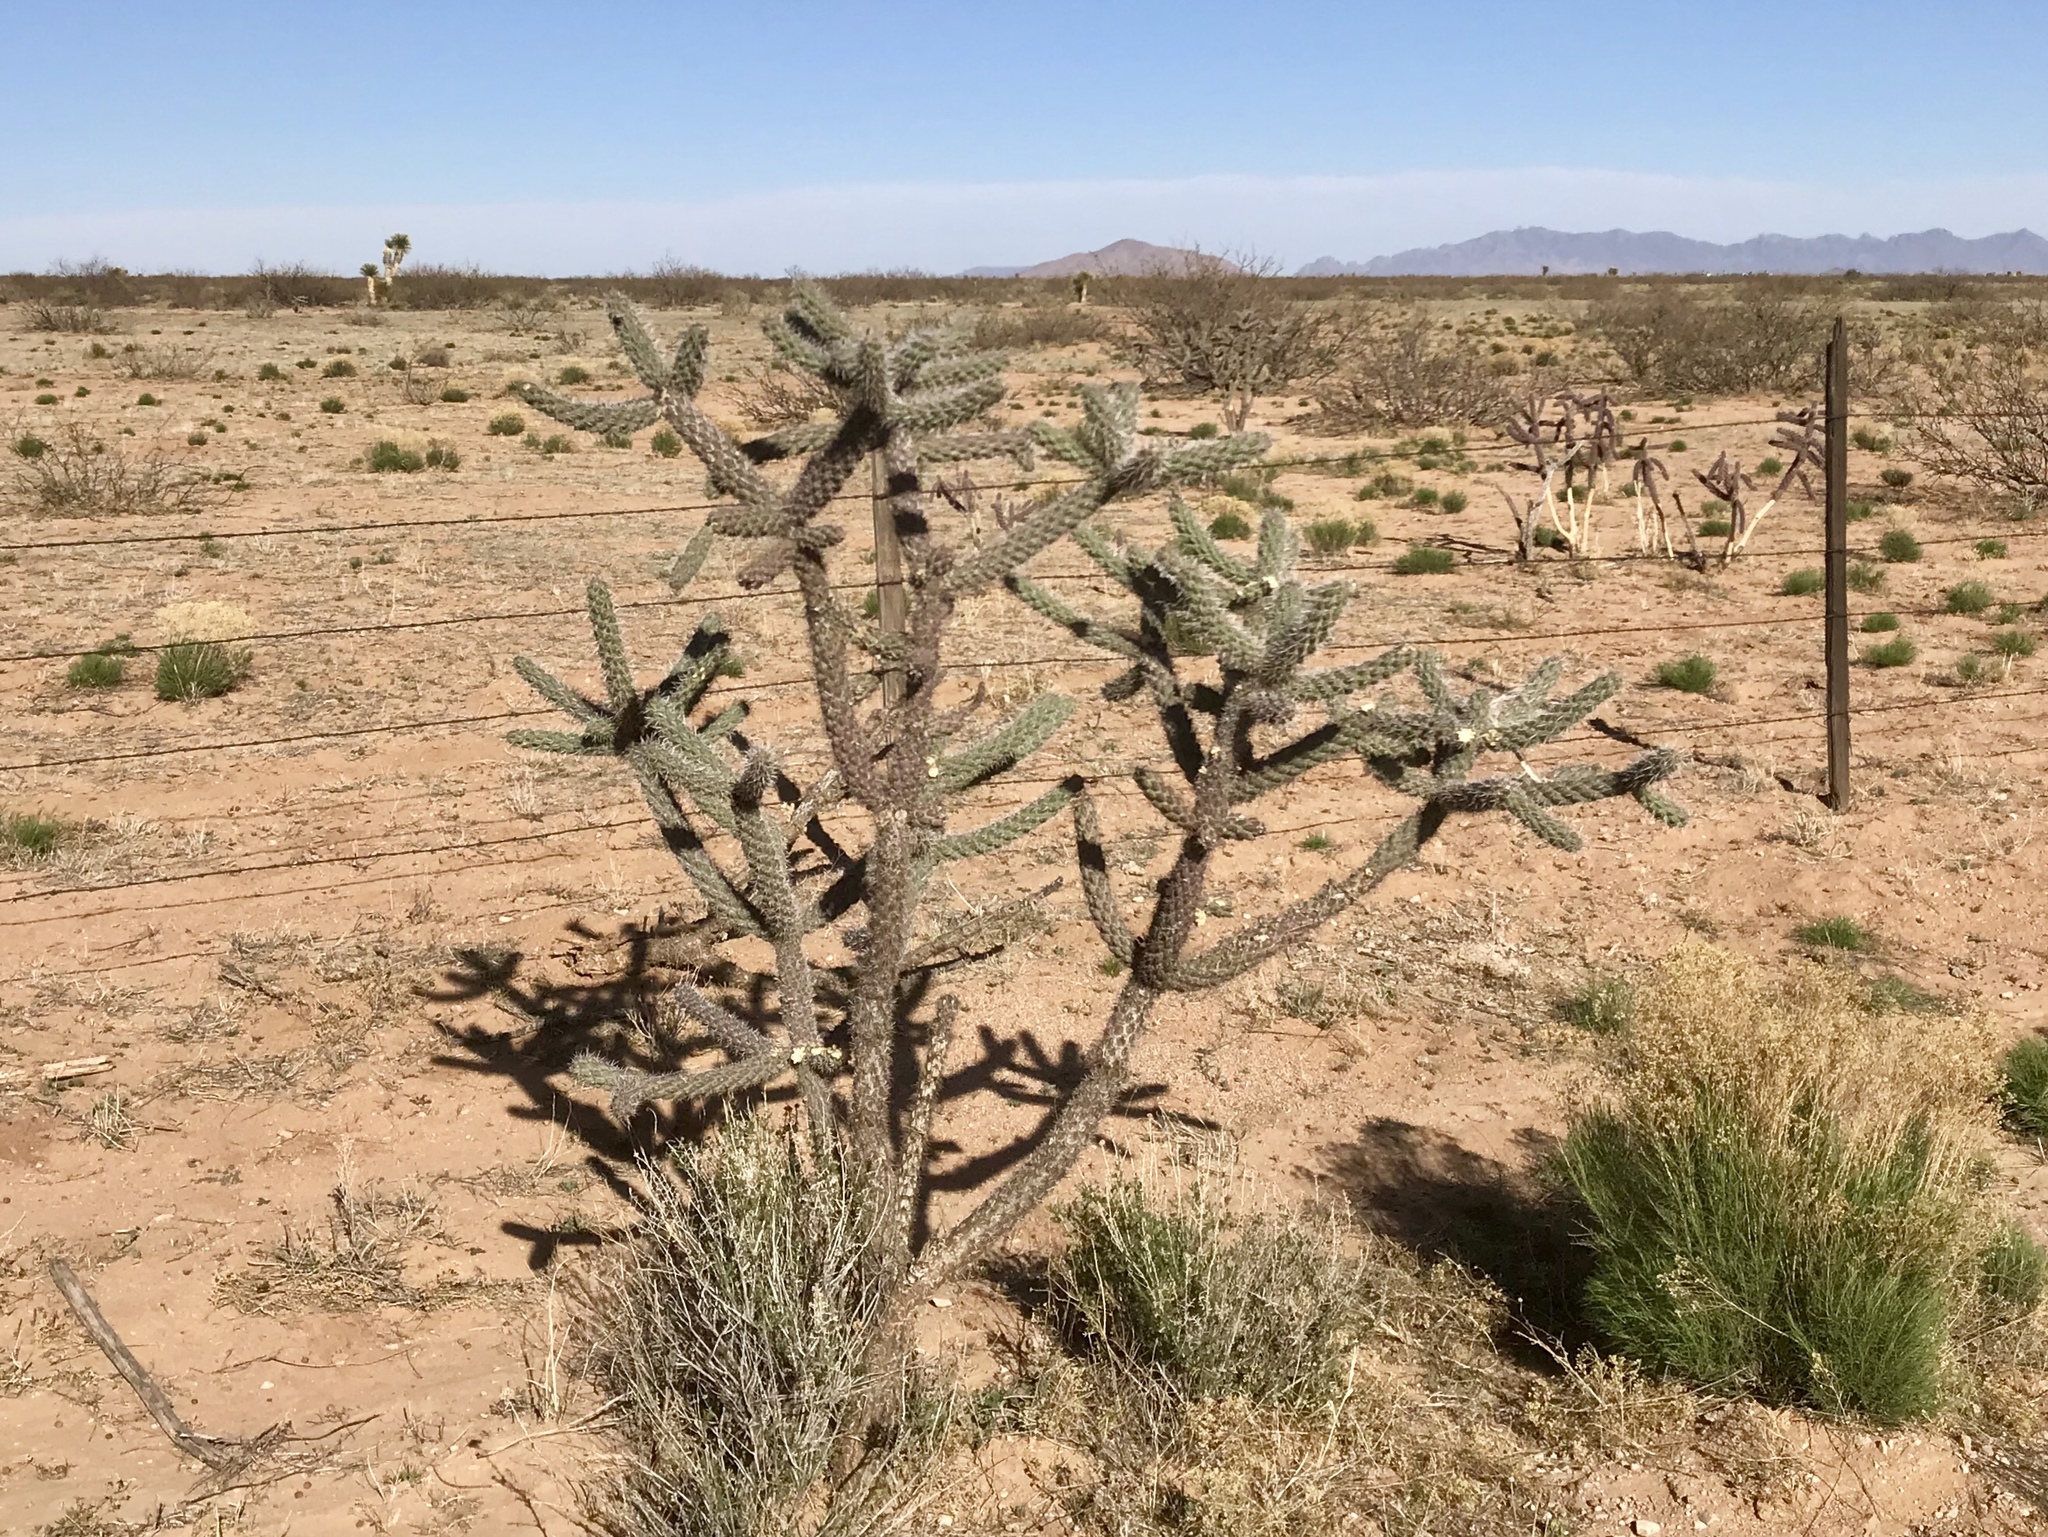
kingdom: Plantae
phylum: Tracheophyta
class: Magnoliopsida
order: Caryophyllales
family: Cactaceae
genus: Cylindropuntia
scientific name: Cylindropuntia imbricata
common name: Candelabrum cactus
